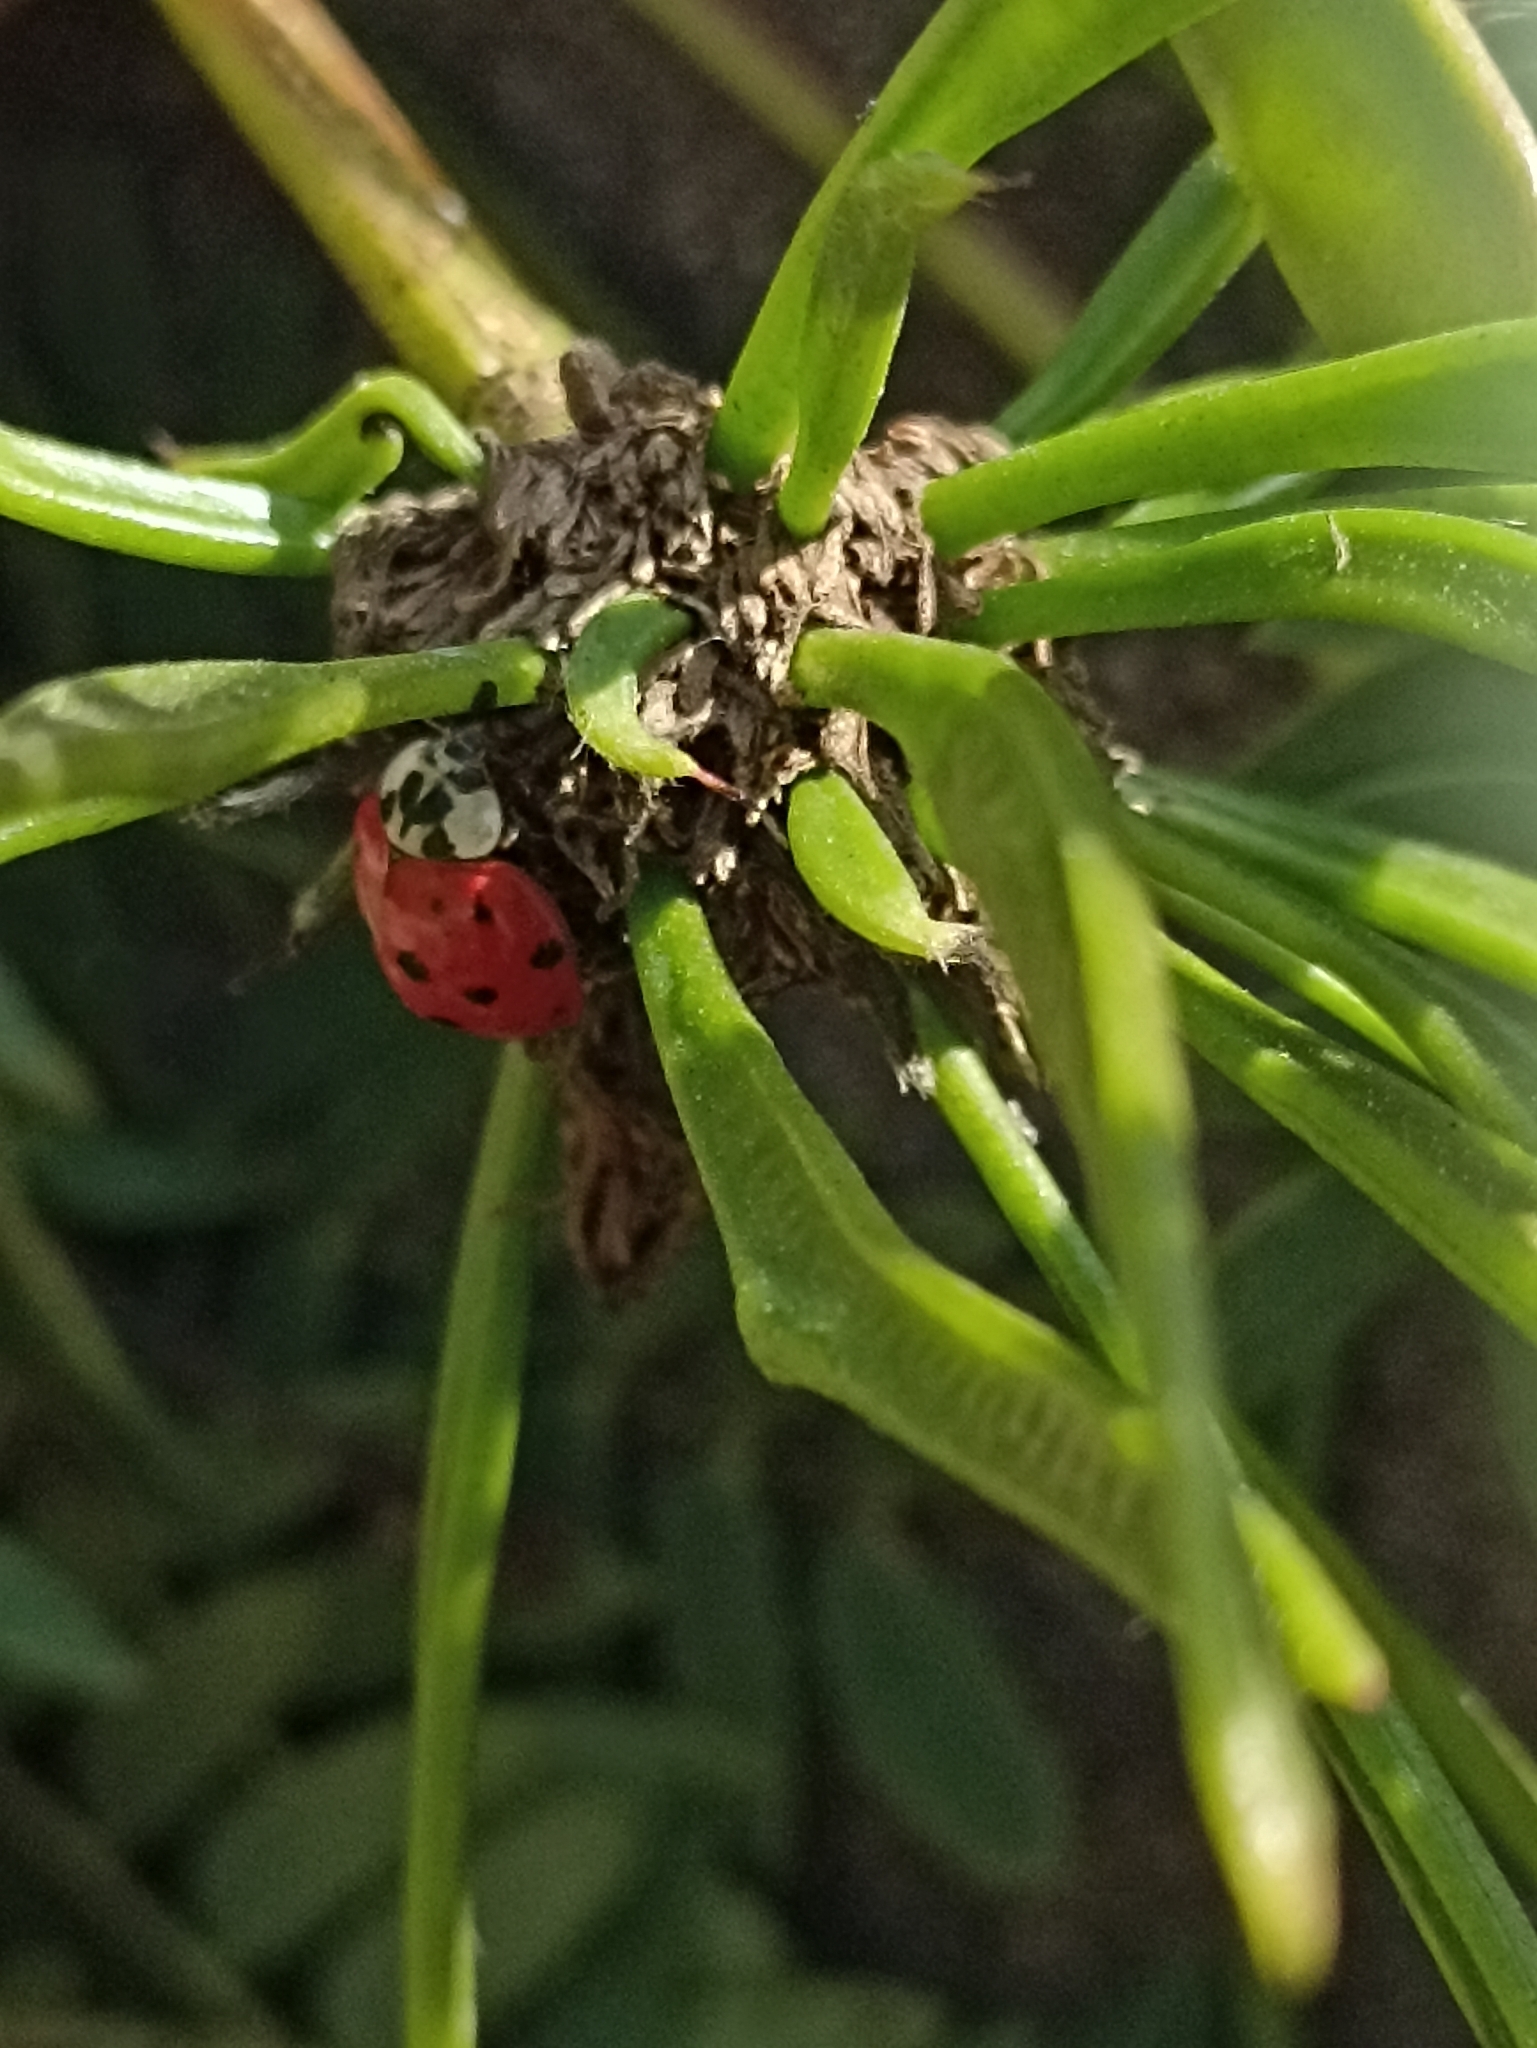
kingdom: Animalia
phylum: Arthropoda
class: Insecta
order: Coleoptera
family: Coccinellidae
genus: Harmonia
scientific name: Harmonia axyridis
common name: Harlequin ladybird
